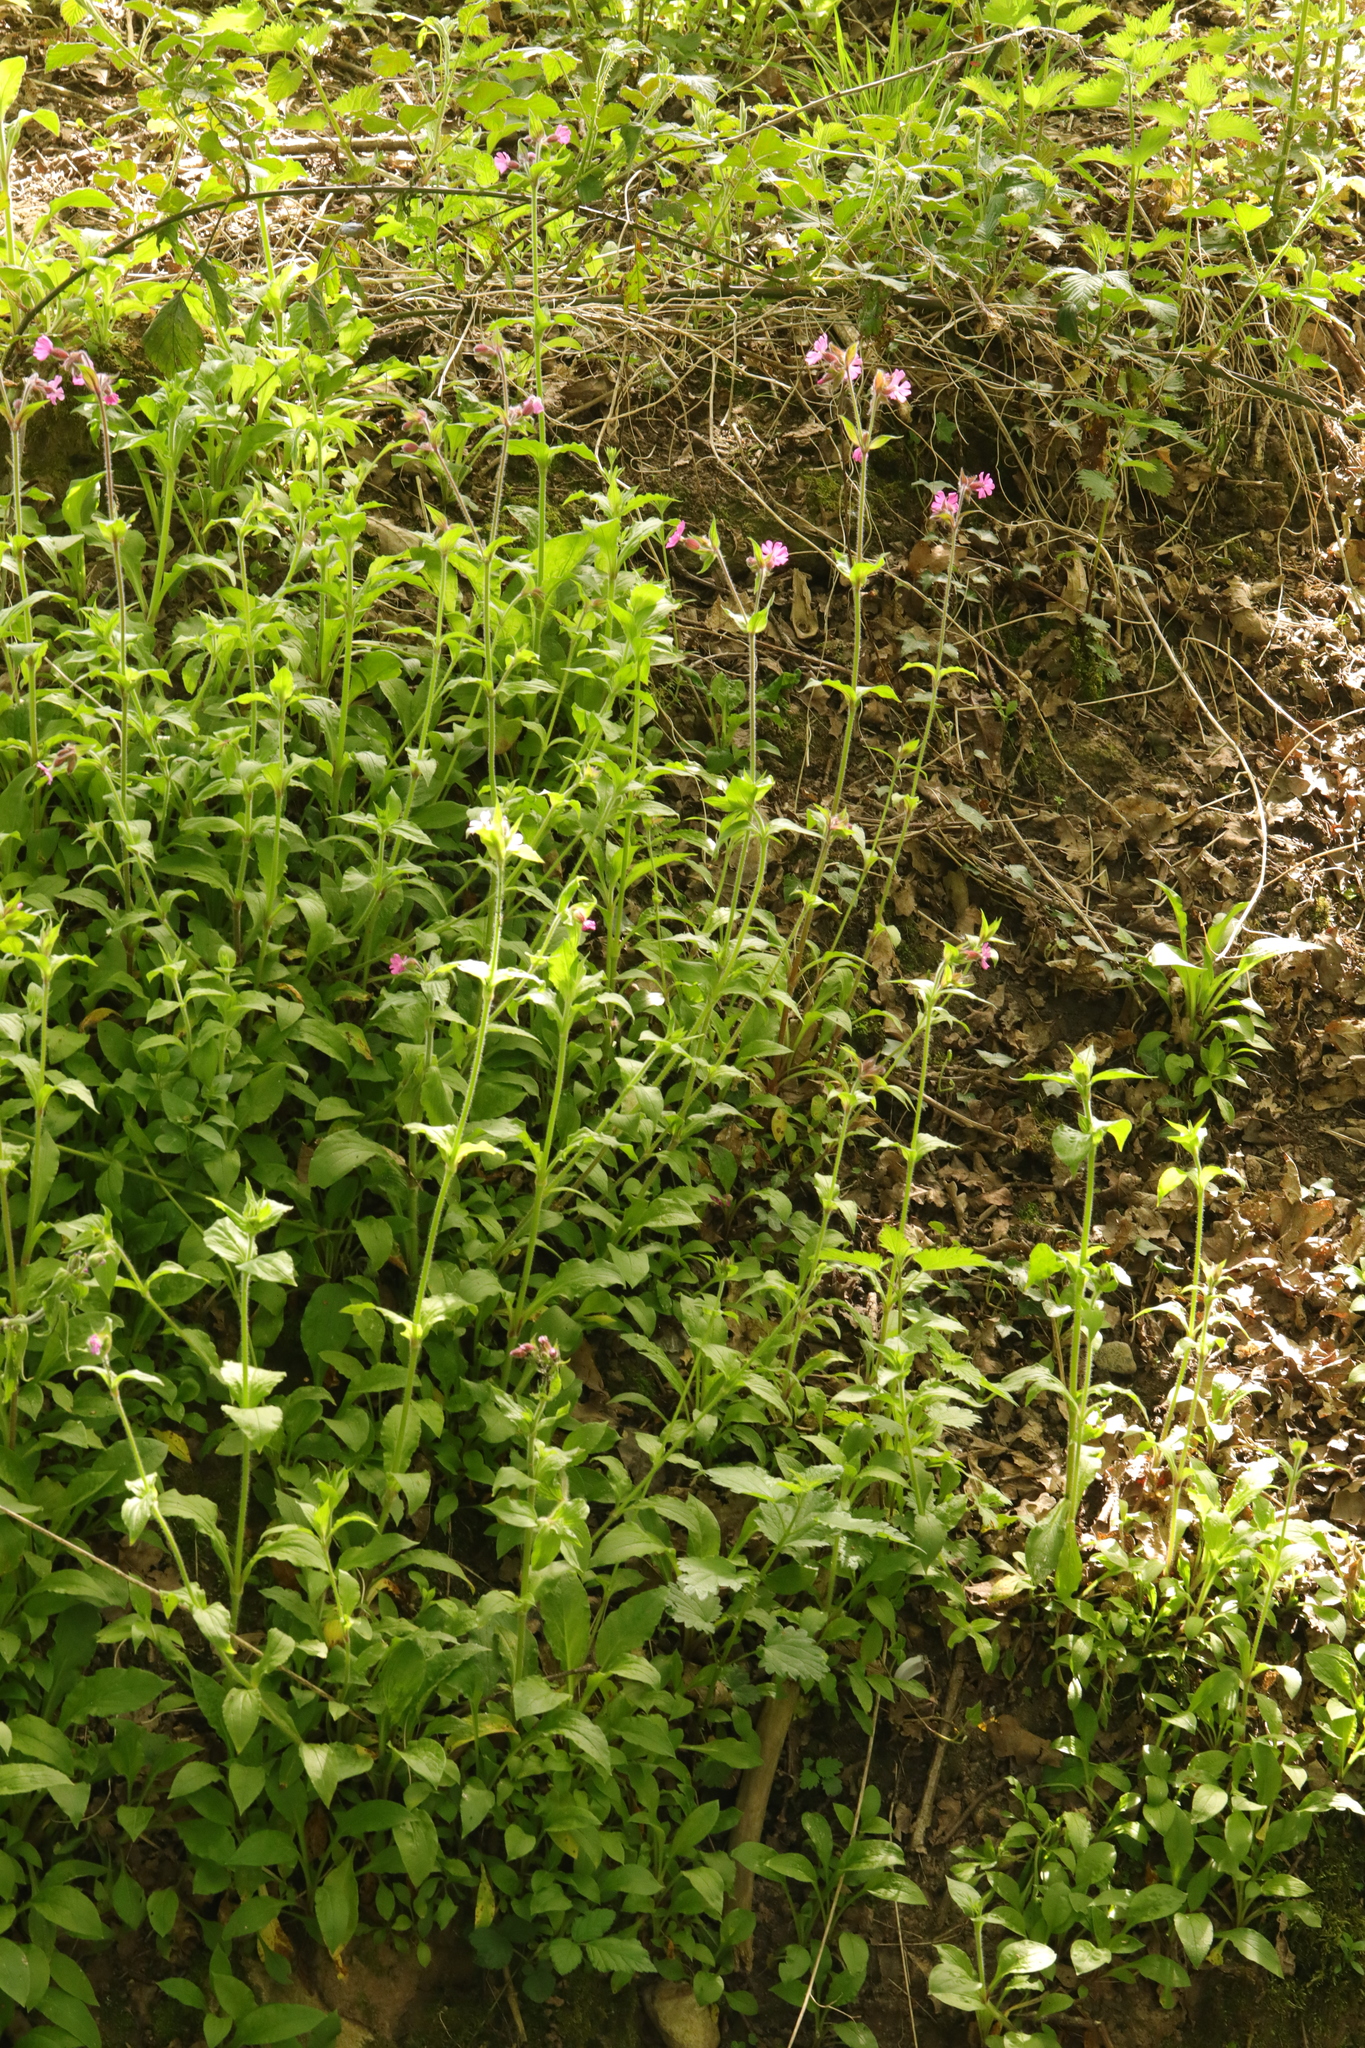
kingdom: Plantae
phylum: Tracheophyta
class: Magnoliopsida
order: Caryophyllales
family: Caryophyllaceae
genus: Silene
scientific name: Silene dioica
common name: Red campion
